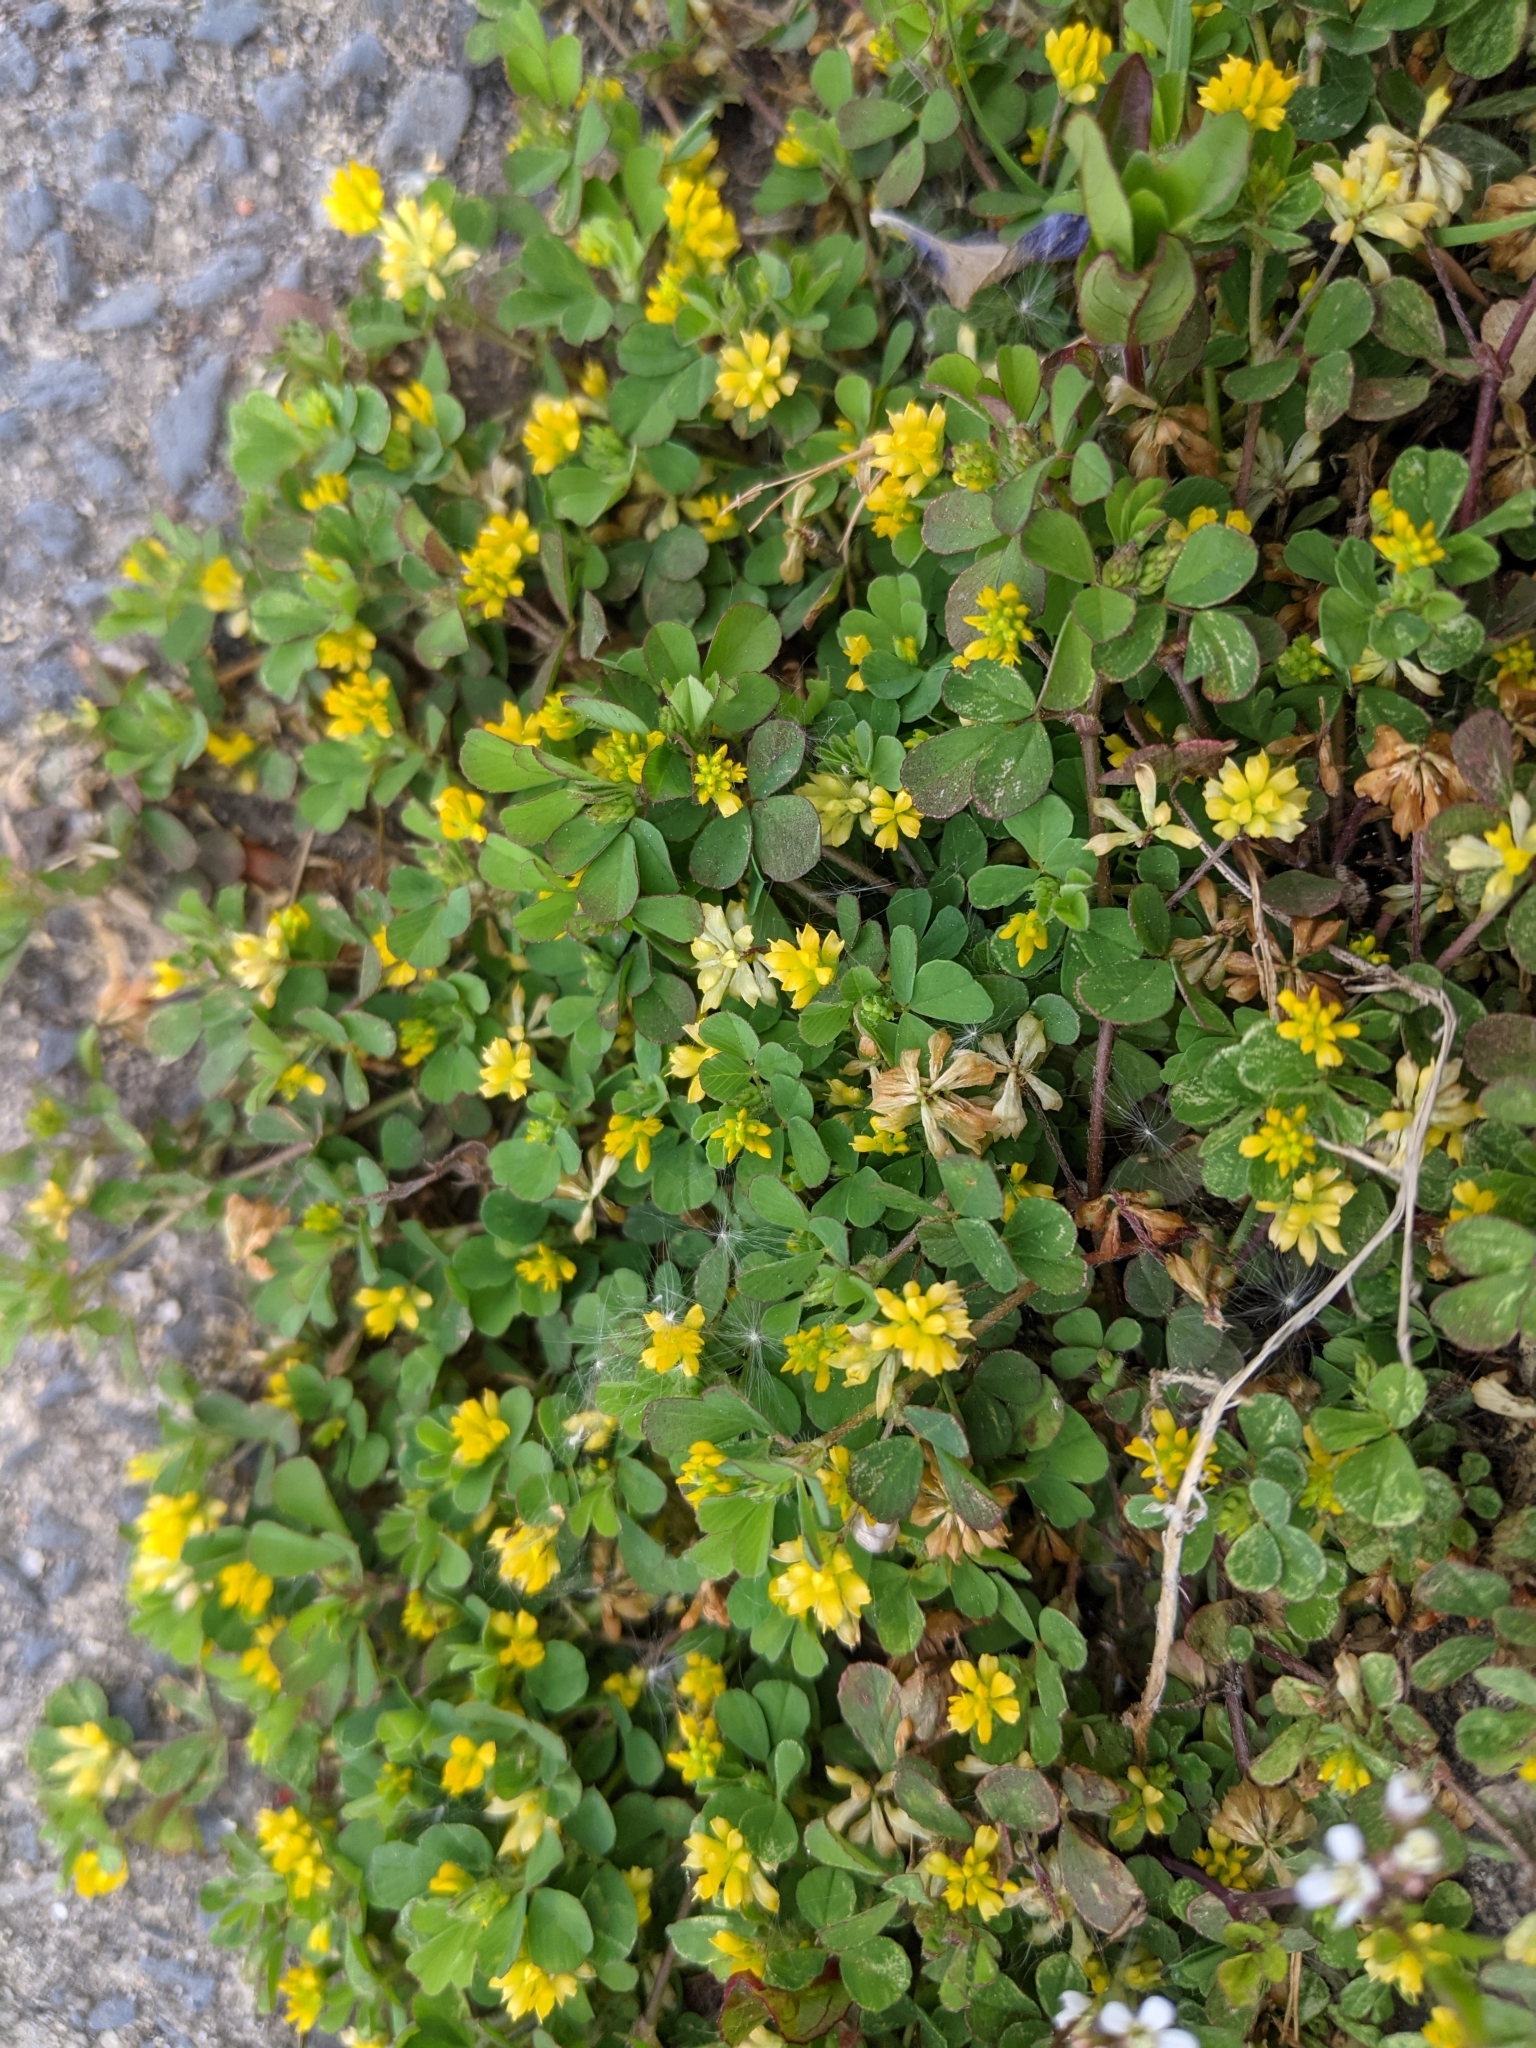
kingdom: Plantae
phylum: Tracheophyta
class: Magnoliopsida
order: Fabales
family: Fabaceae
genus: Trifolium
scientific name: Trifolium dubium
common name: Suckling clover
